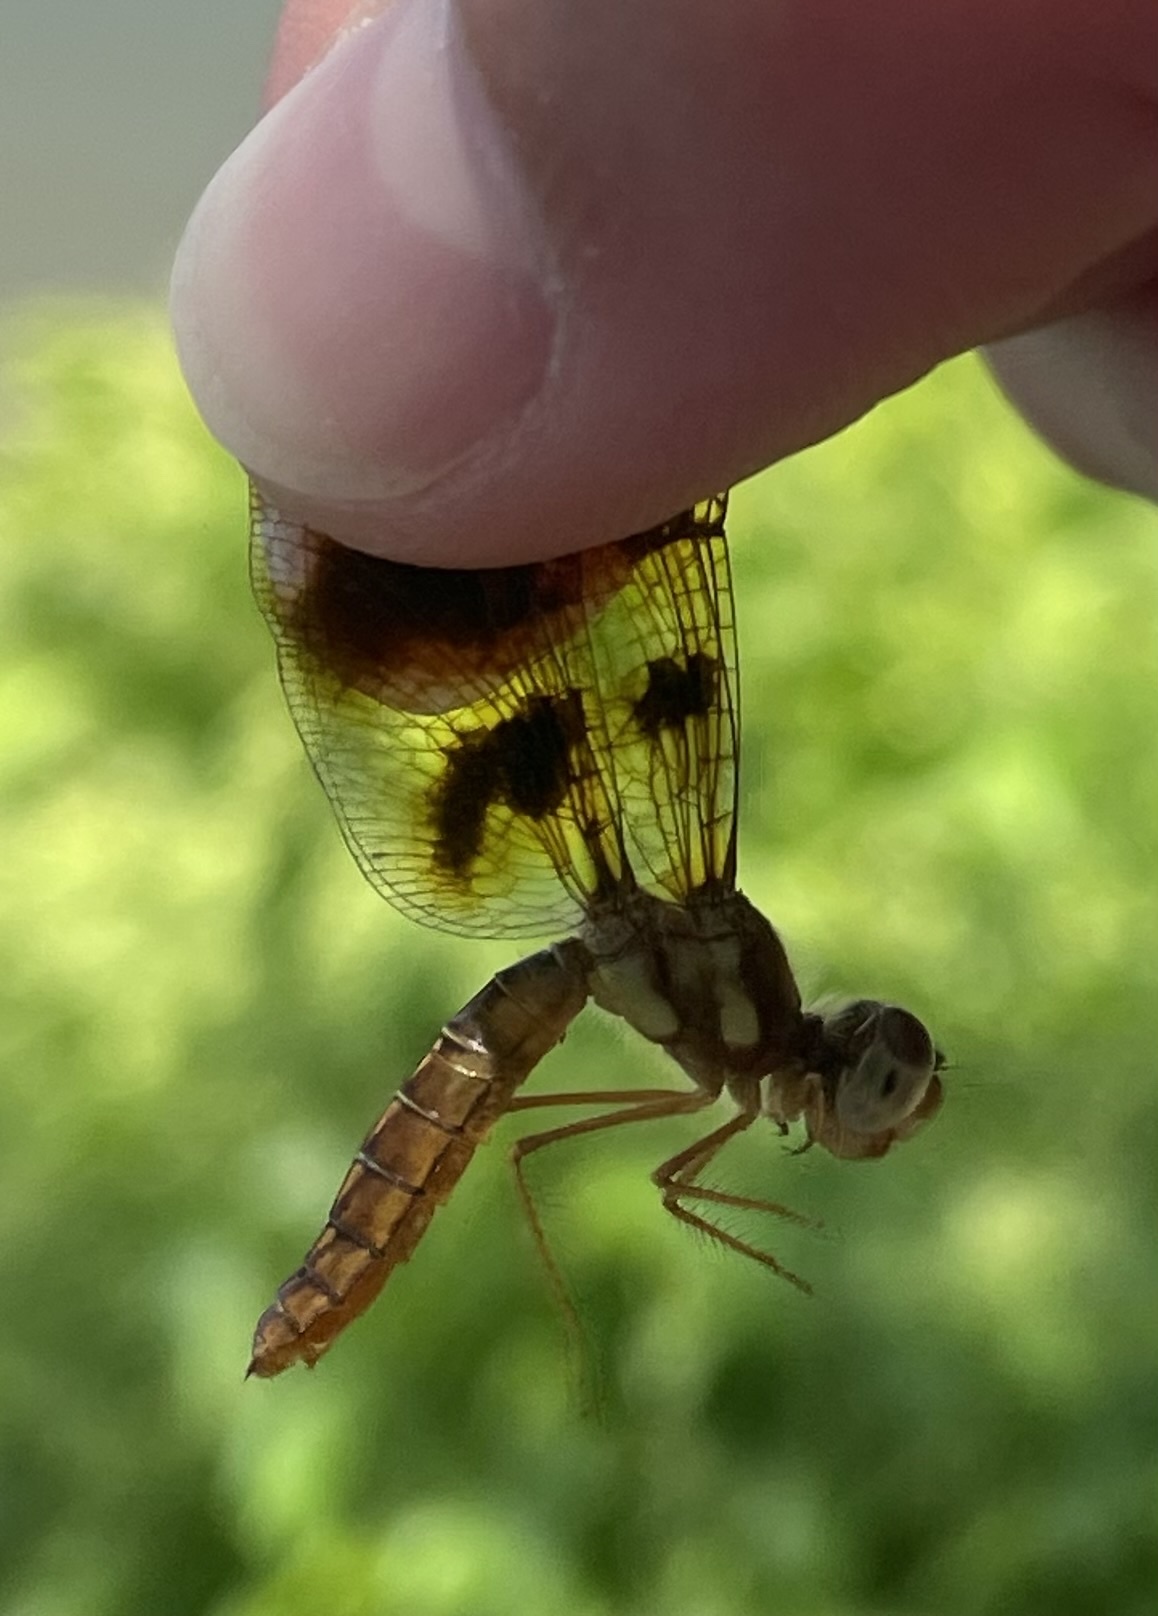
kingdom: Animalia
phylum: Arthropoda
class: Insecta
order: Odonata
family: Libellulidae
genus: Perithemis
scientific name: Perithemis tenera
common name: Eastern amberwing
